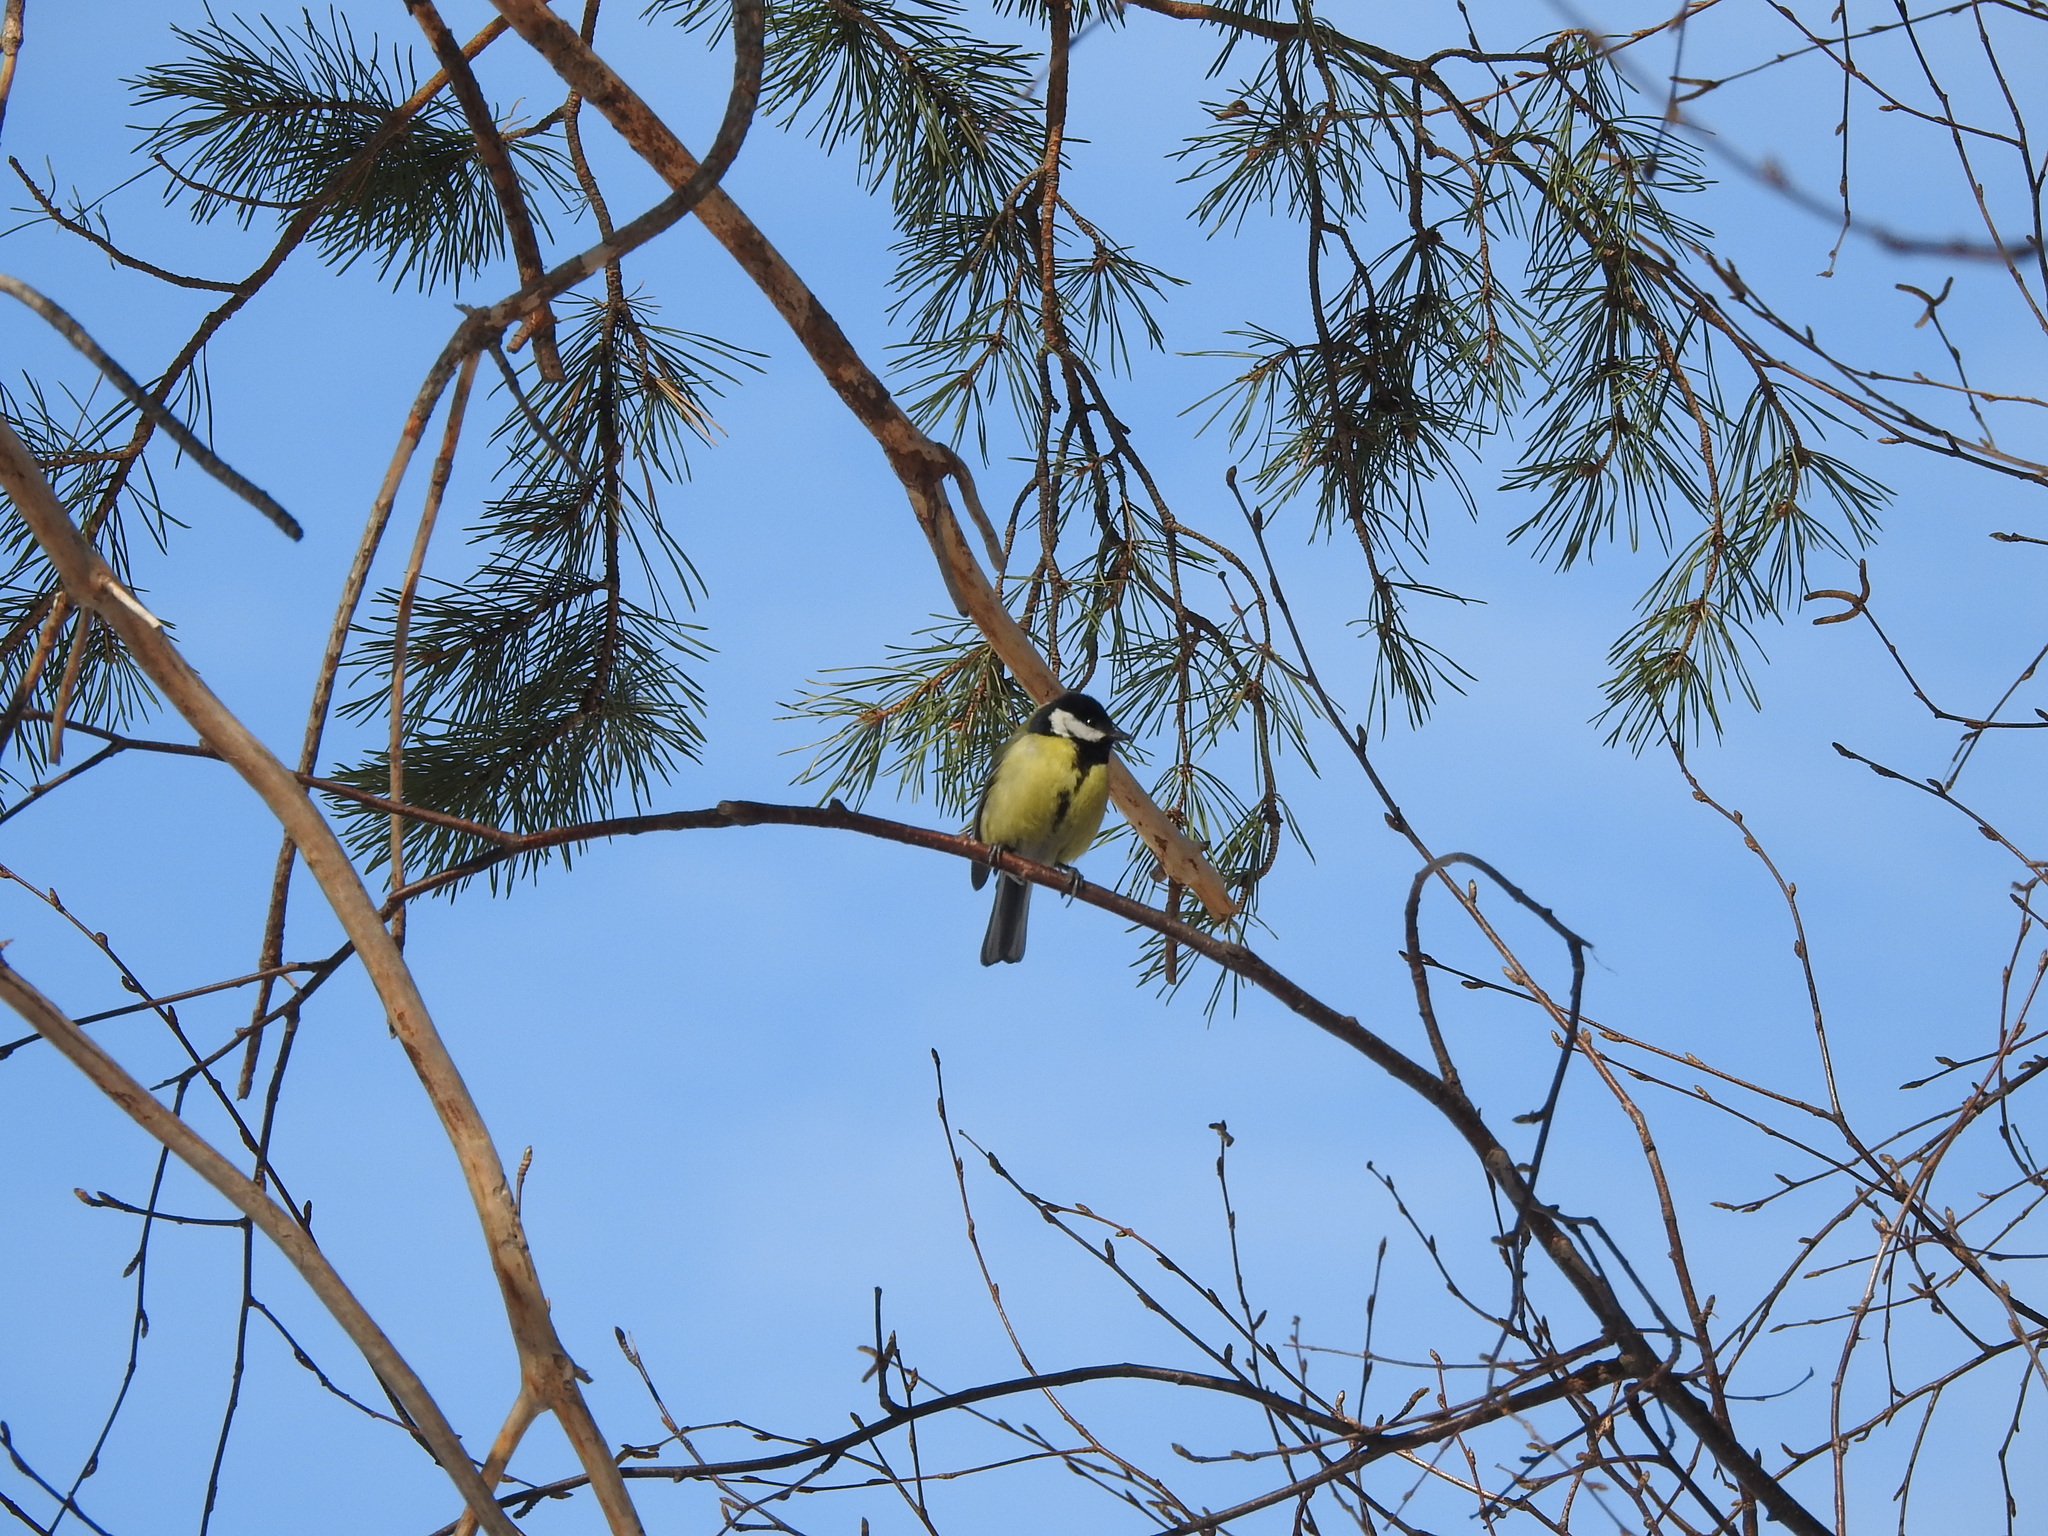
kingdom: Animalia
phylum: Chordata
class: Aves
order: Passeriformes
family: Paridae
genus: Parus
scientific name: Parus major
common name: Great tit
